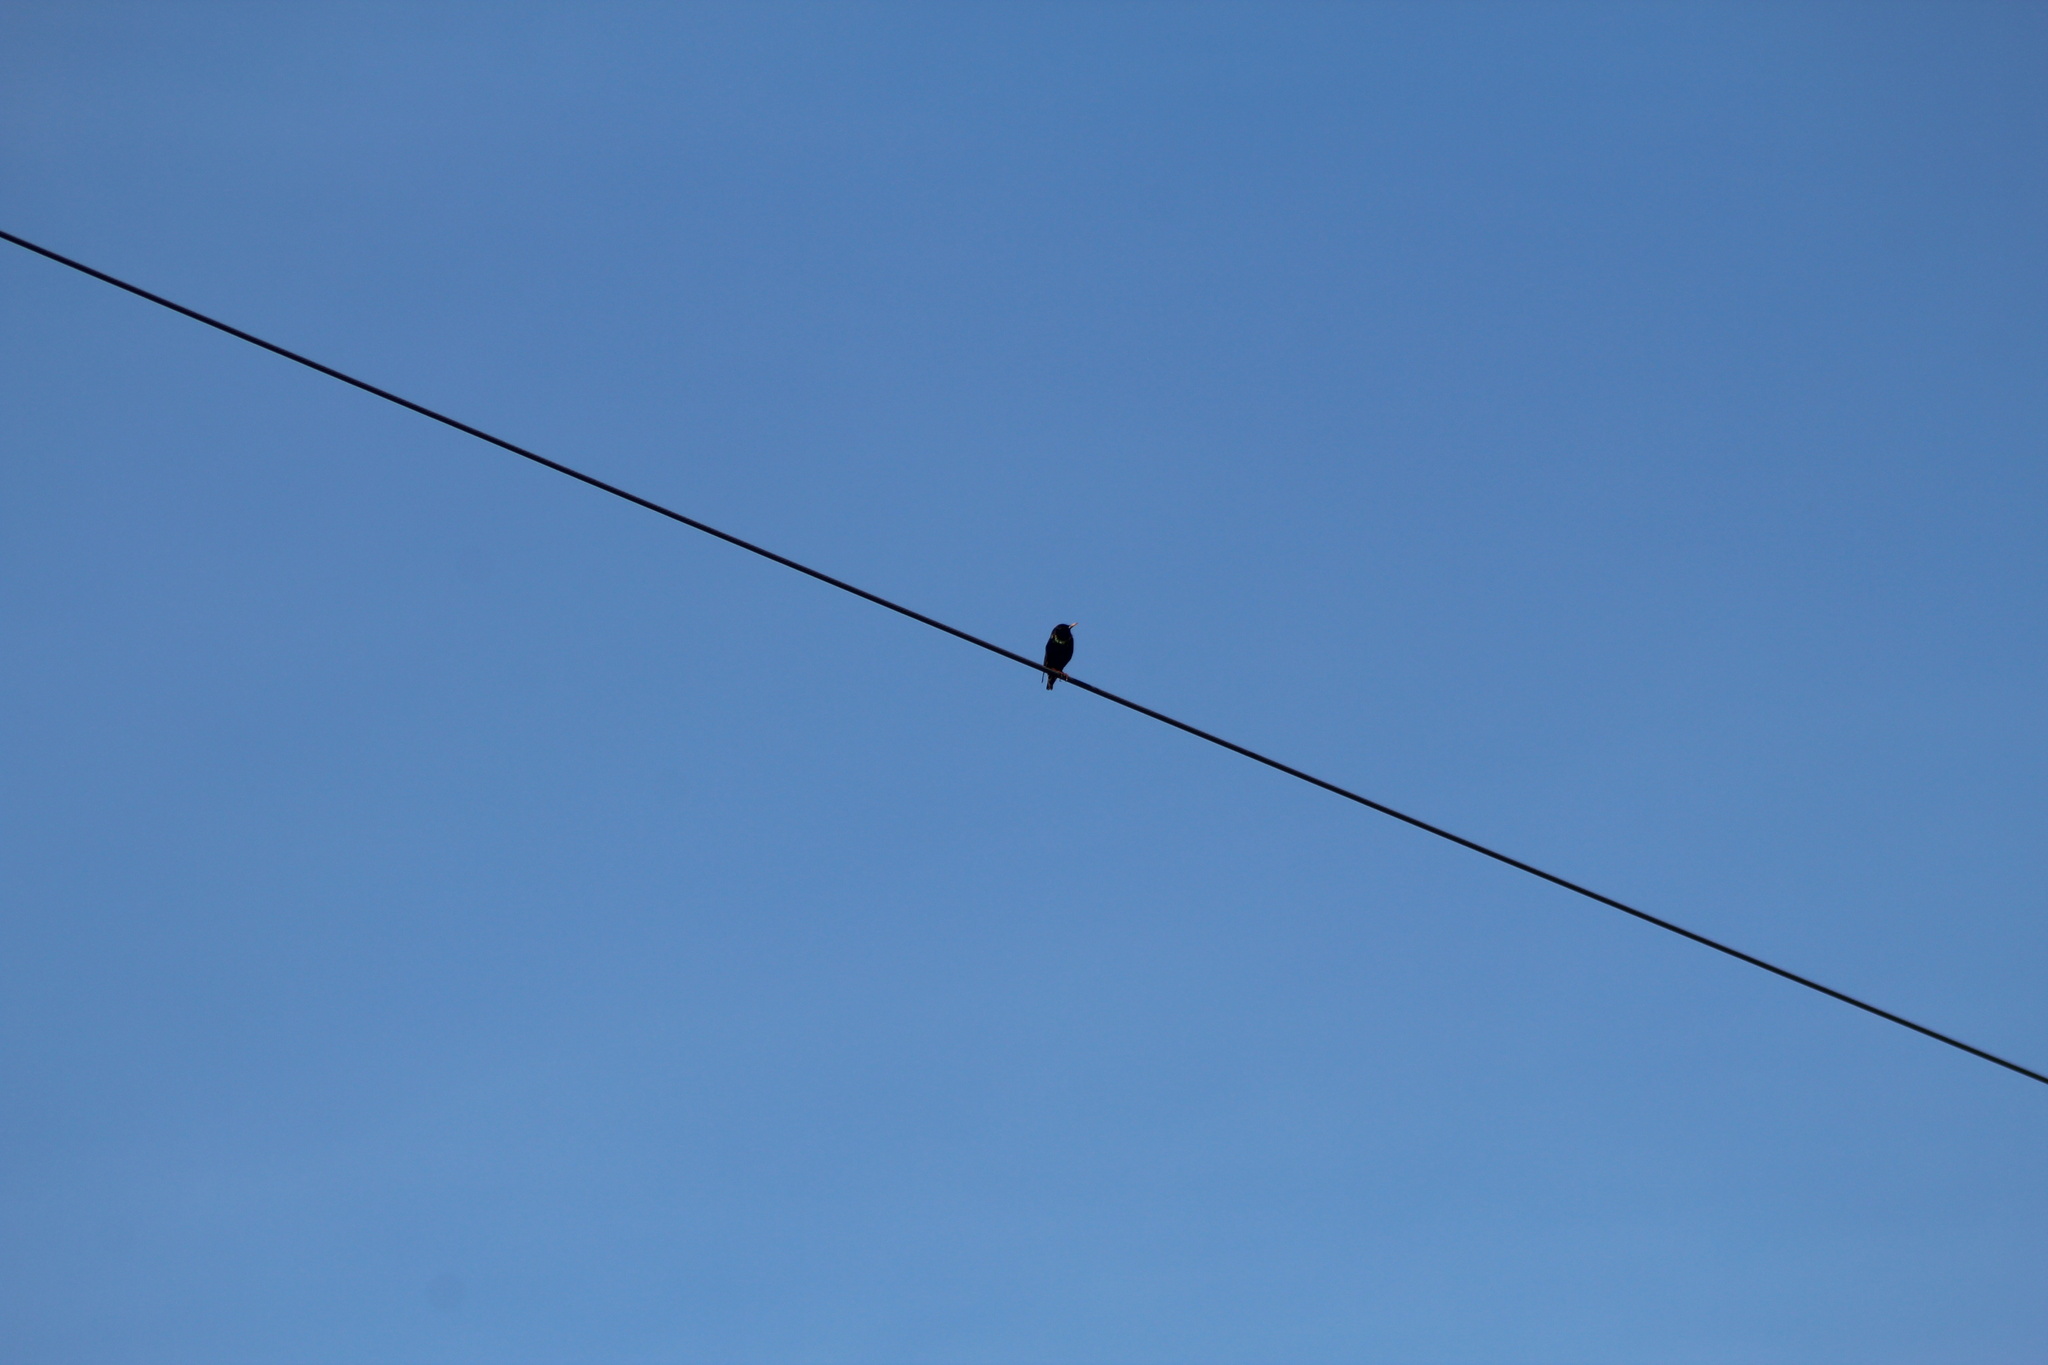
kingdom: Animalia
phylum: Chordata
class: Aves
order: Passeriformes
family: Sturnidae
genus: Sturnus
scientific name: Sturnus vulgaris
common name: Common starling
